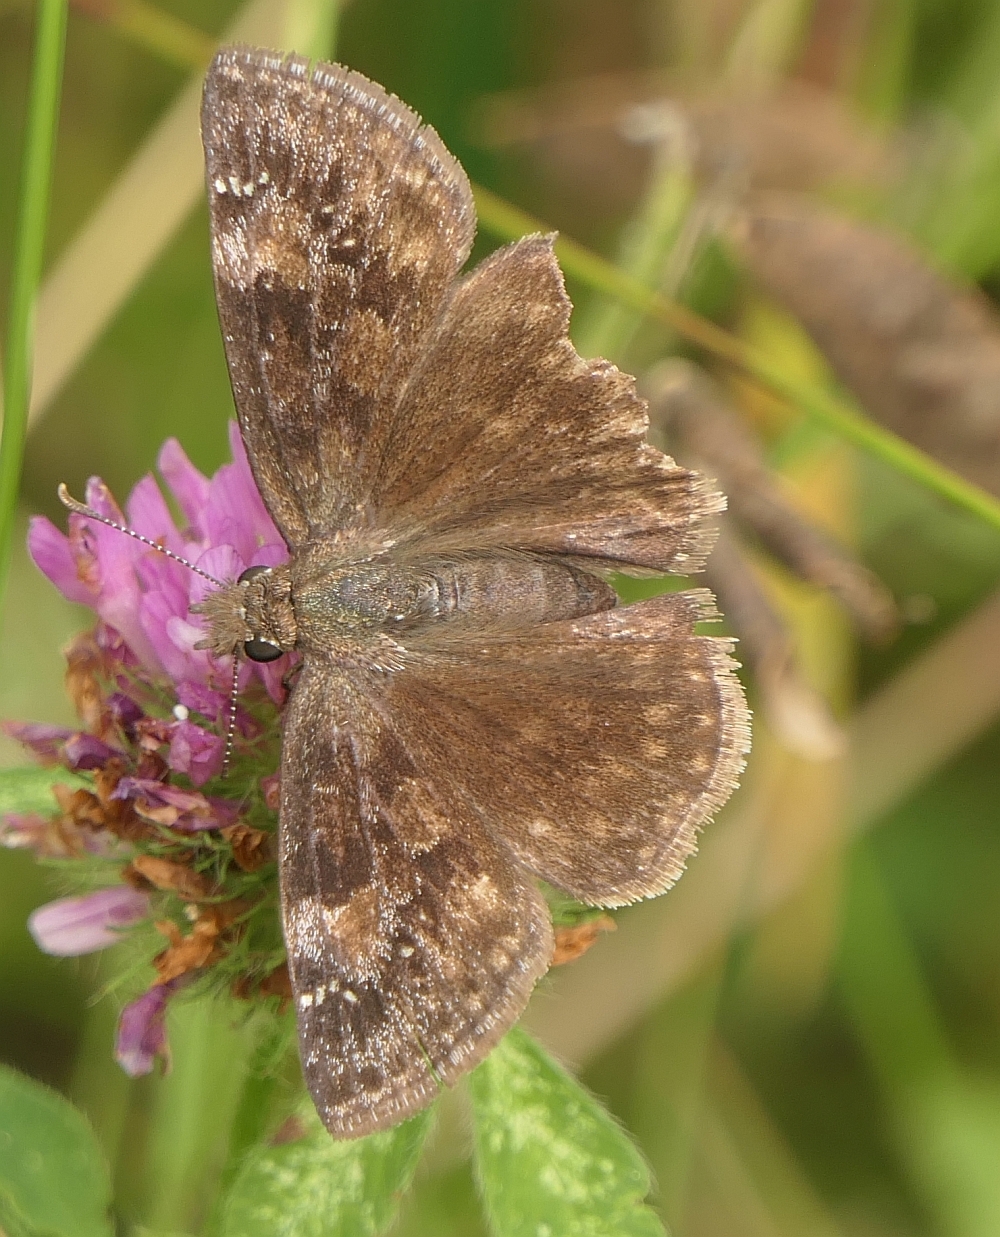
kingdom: Animalia
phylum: Arthropoda
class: Insecta
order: Lepidoptera
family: Hesperiidae
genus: Erynnis
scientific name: Erynnis baptisiae
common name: Wild indigo duskywing
